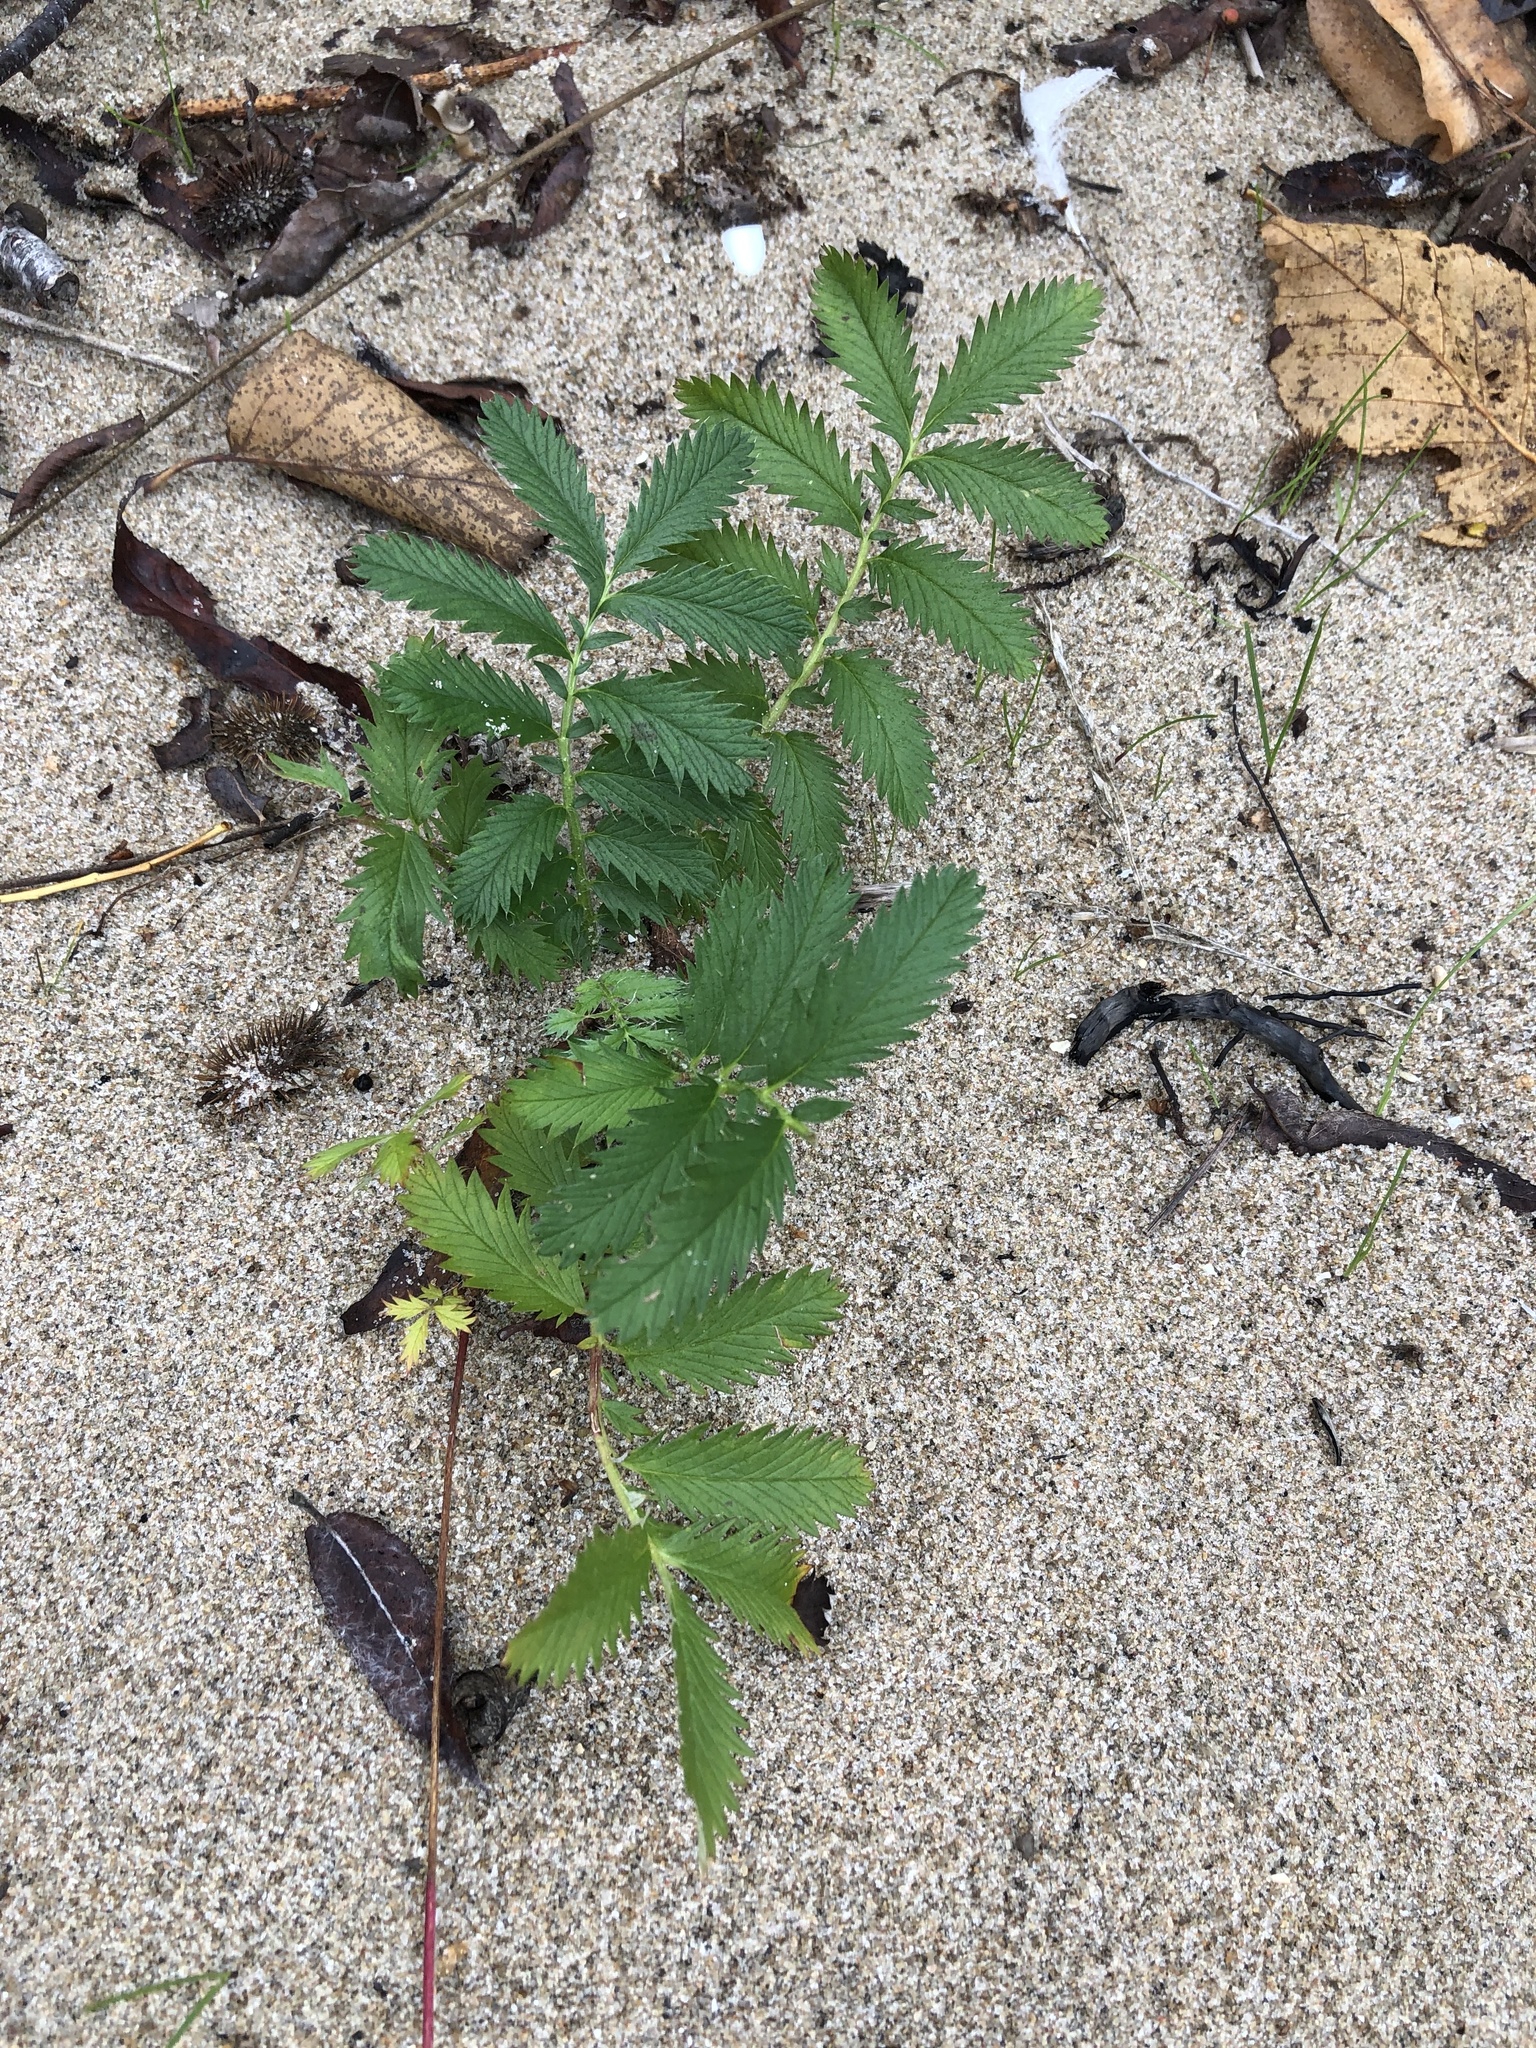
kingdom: Plantae
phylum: Tracheophyta
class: Magnoliopsida
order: Rosales
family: Rosaceae
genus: Argentina
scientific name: Argentina anserina
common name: Common silverweed
